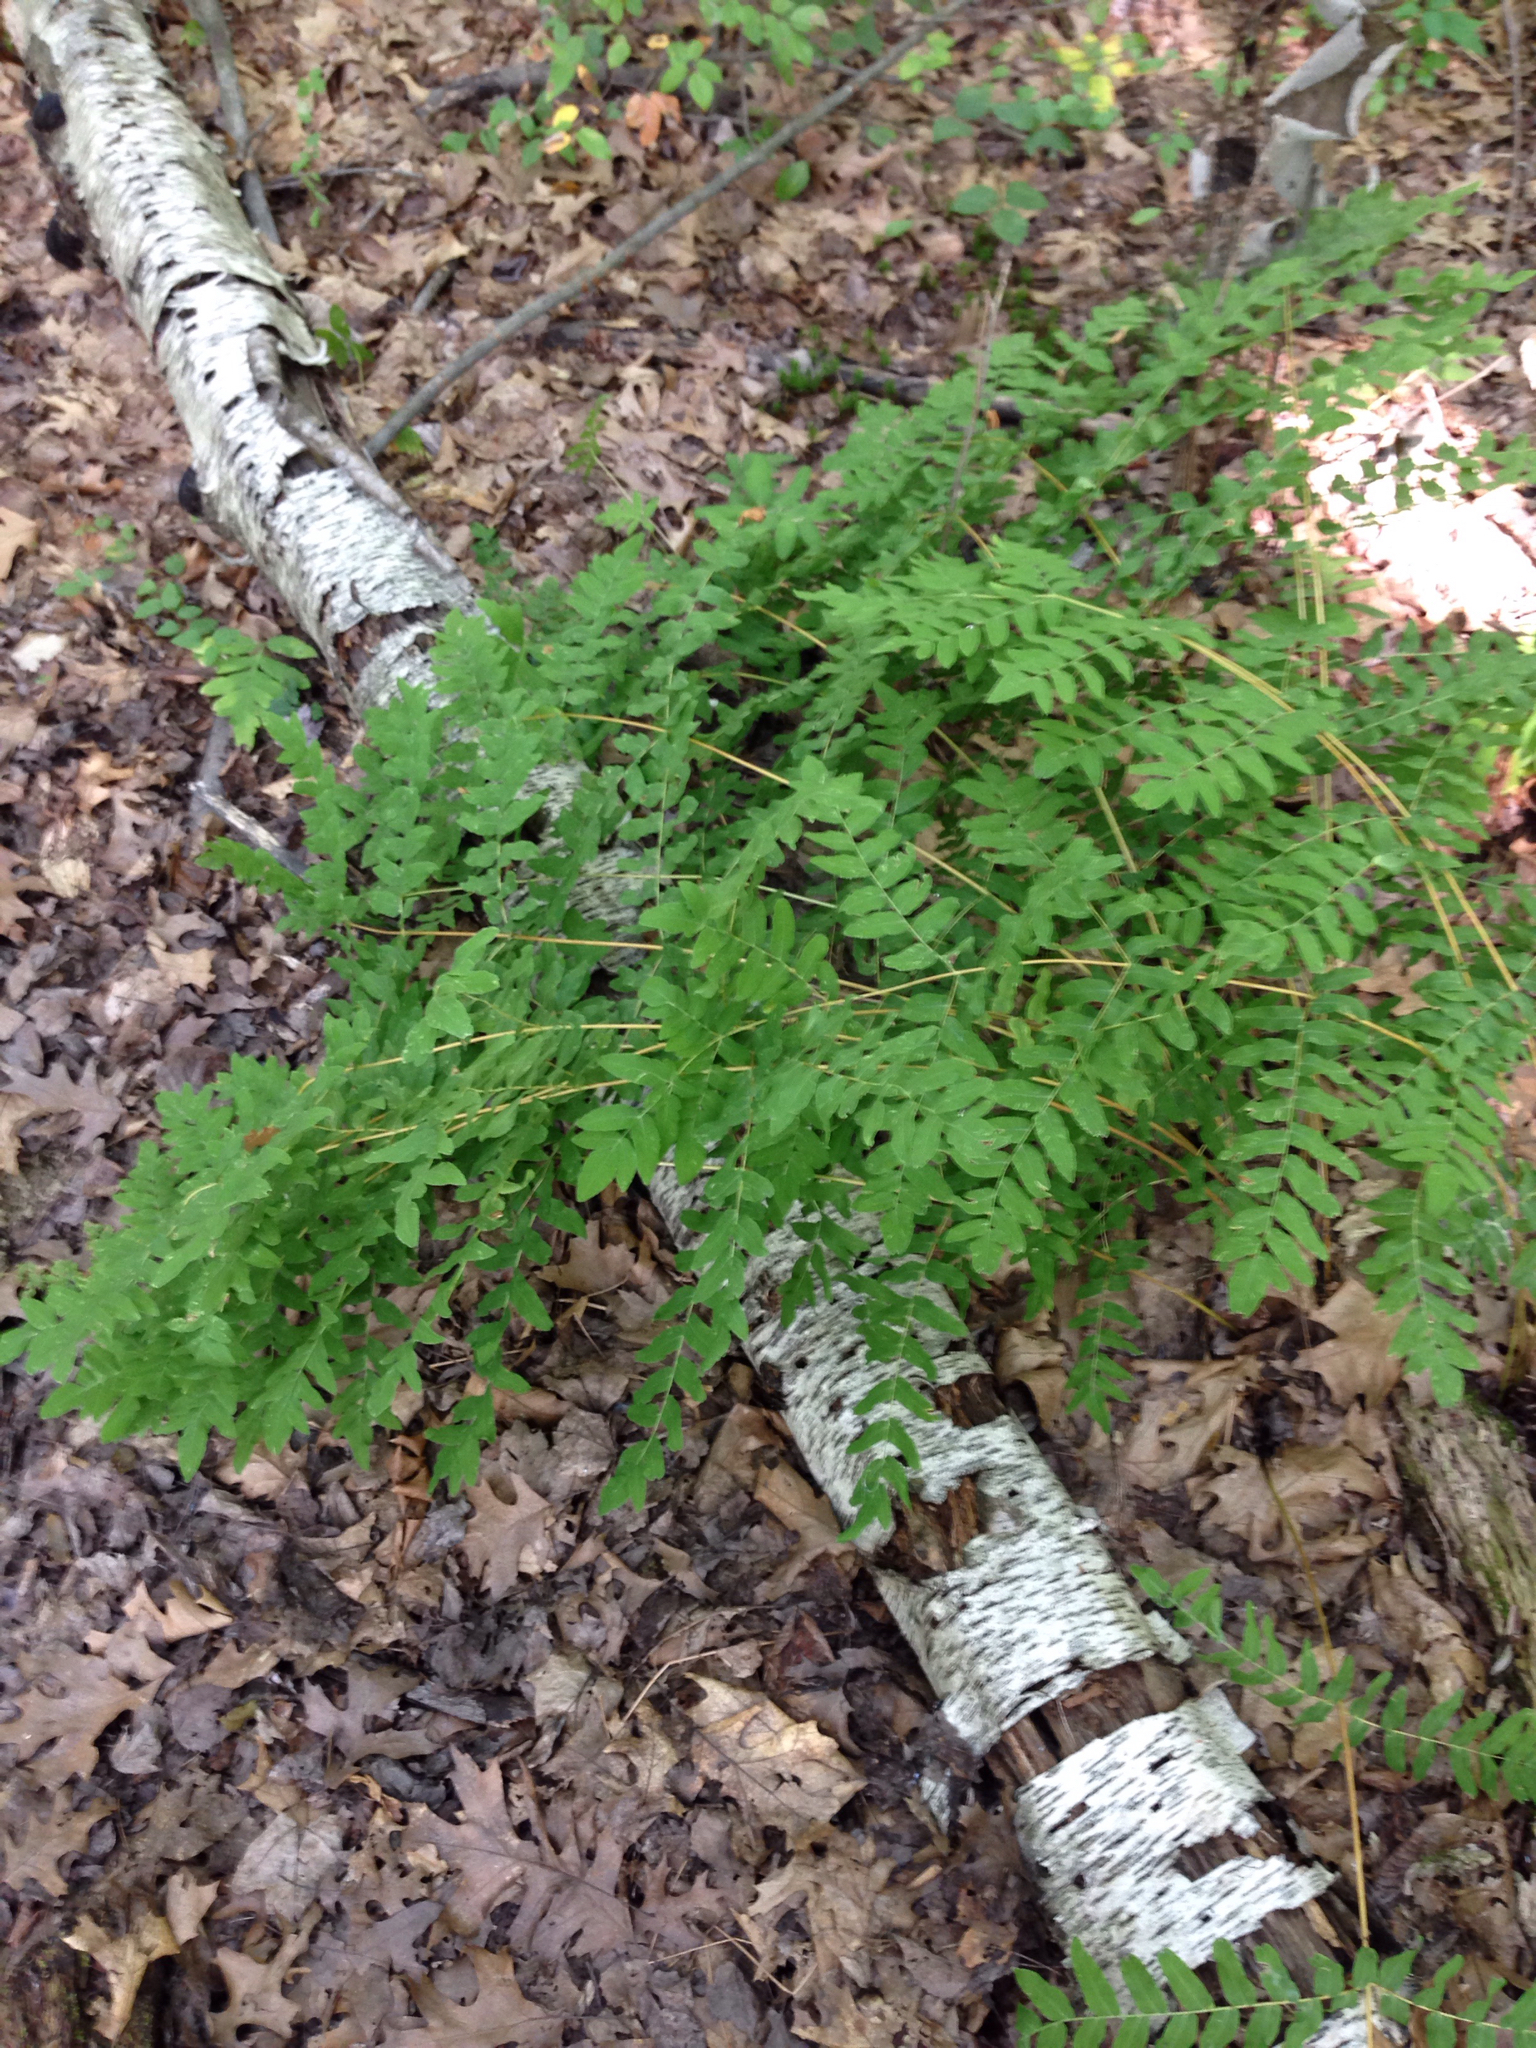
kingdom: Plantae
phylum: Tracheophyta
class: Polypodiopsida
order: Osmundales
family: Osmundaceae
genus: Osmunda
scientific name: Osmunda spectabilis
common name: American royal fern
